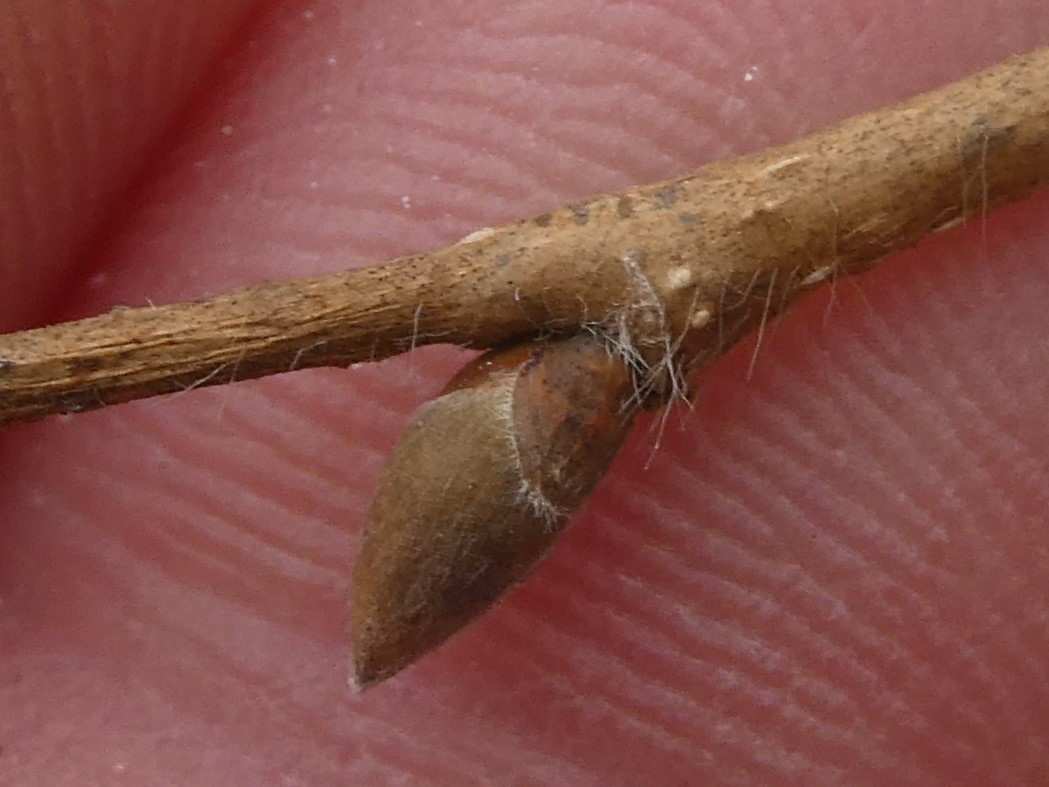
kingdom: Plantae
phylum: Tracheophyta
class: Magnoliopsida
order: Fagales
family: Betulaceae
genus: Corylus
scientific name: Corylus cornuta
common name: Beaked hazel
